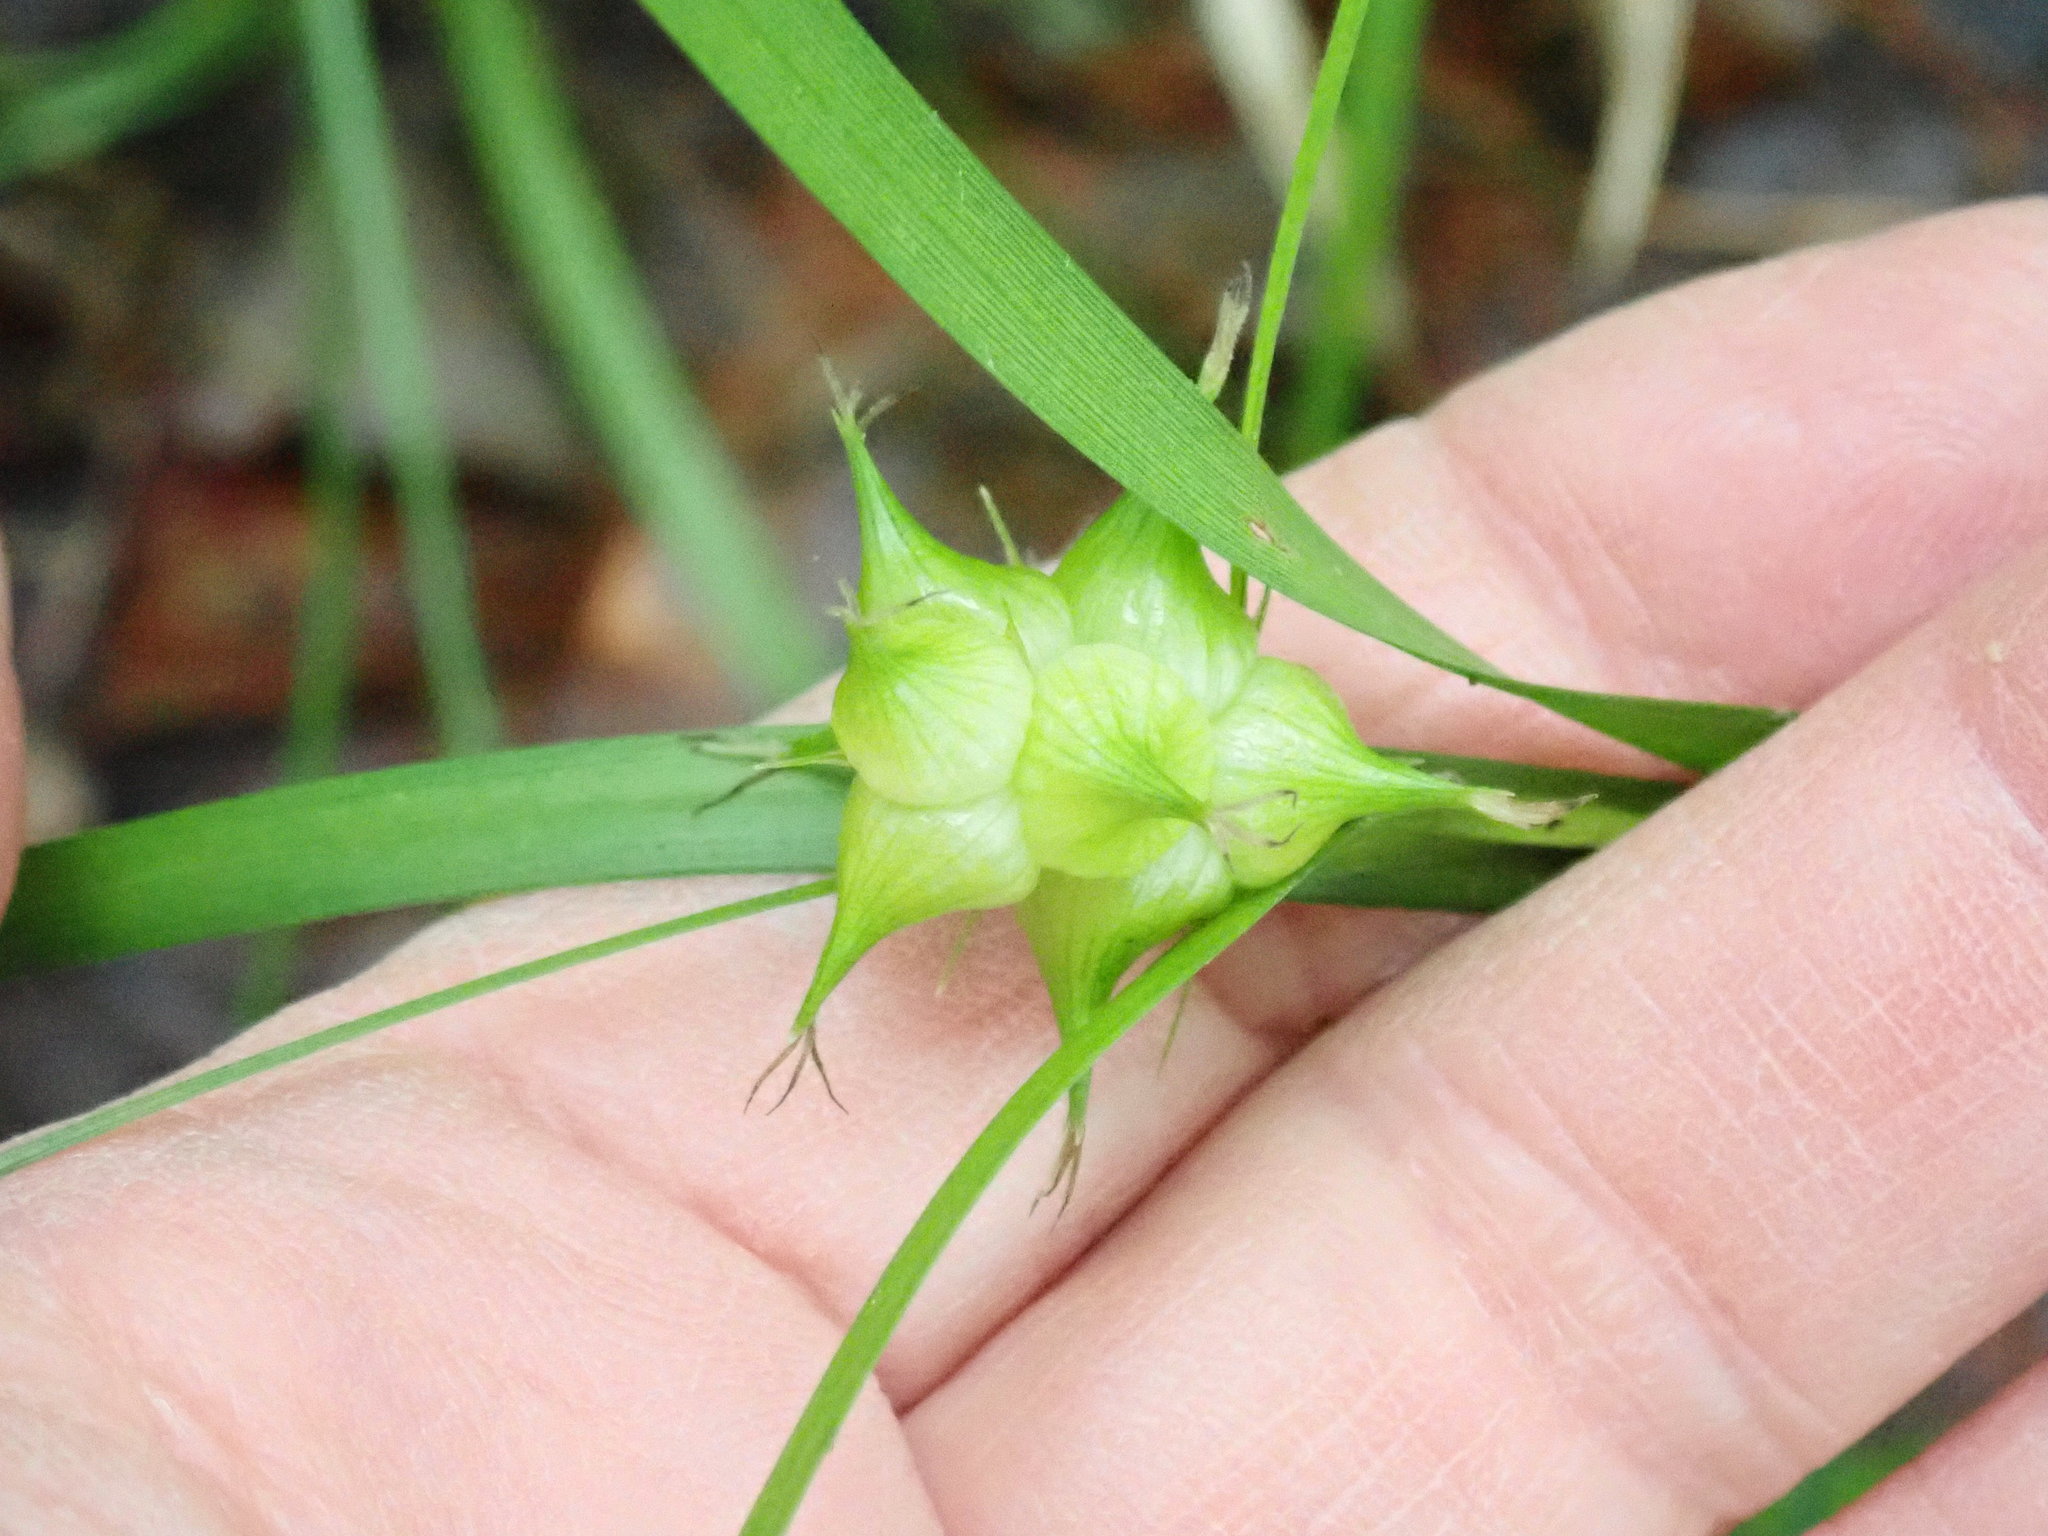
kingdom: Plantae
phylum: Tracheophyta
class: Liliopsida
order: Poales
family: Cyperaceae
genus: Carex
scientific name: Carex intumescens
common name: Greater bladder sedge
